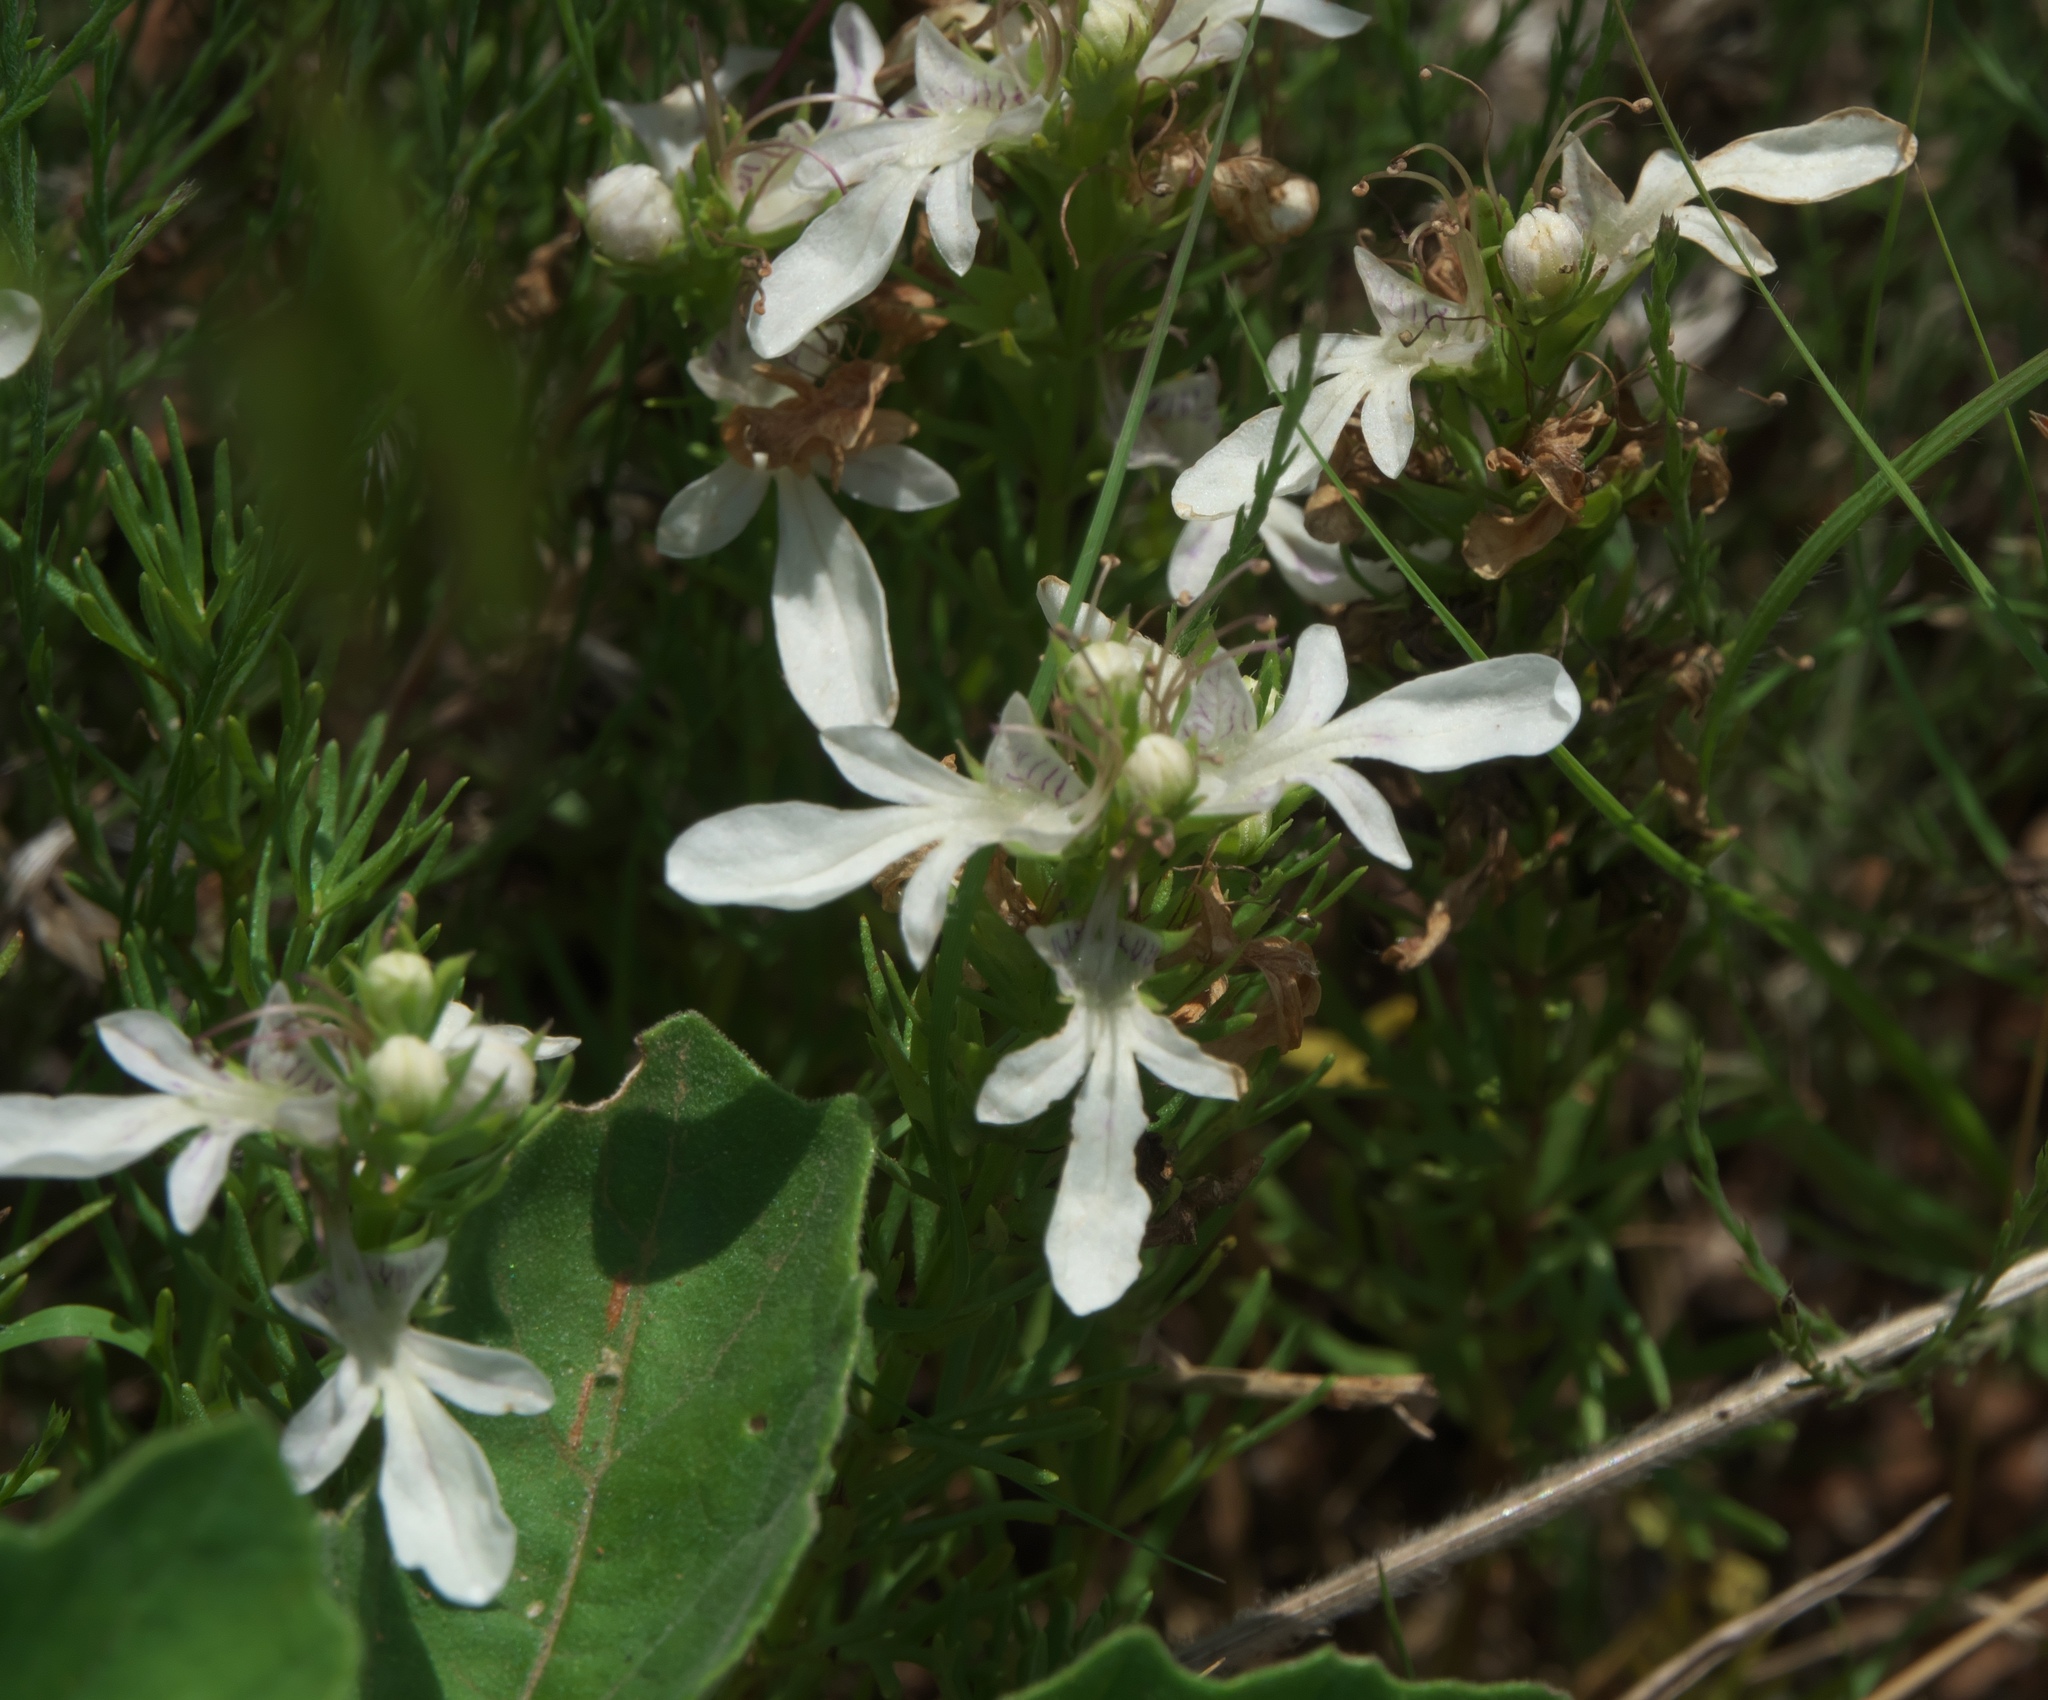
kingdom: Plantae
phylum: Tracheophyta
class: Magnoliopsida
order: Lamiales
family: Lamiaceae
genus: Teucrium
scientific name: Teucrium laciniatum
